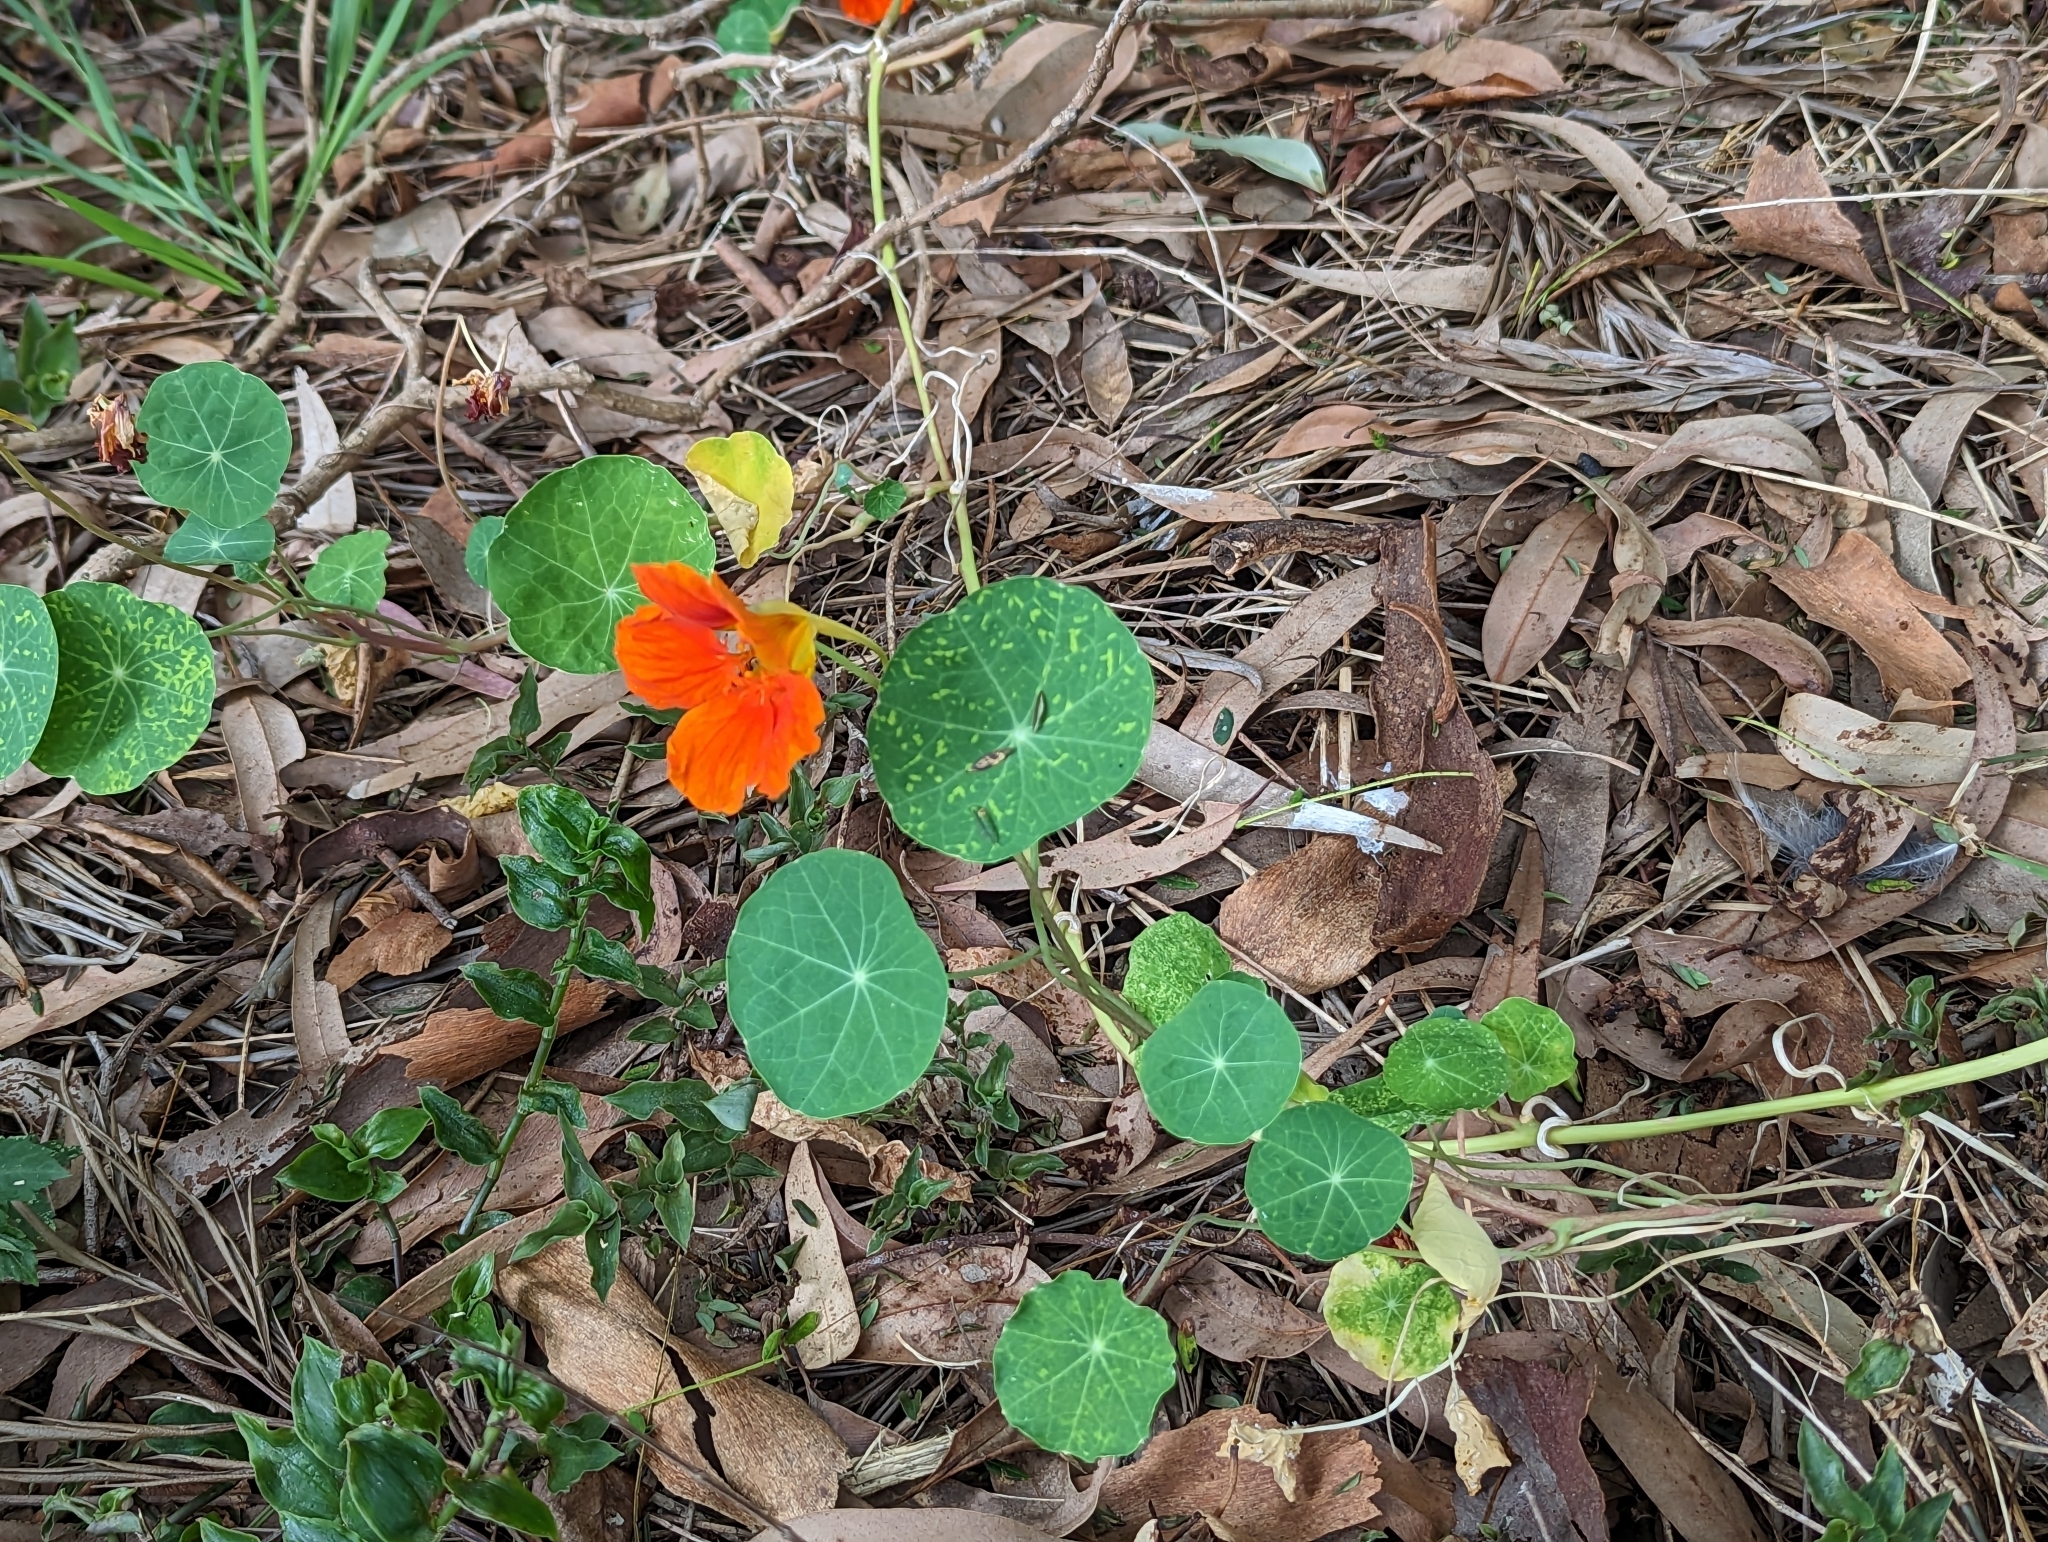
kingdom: Plantae
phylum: Tracheophyta
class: Magnoliopsida
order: Brassicales
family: Tropaeolaceae
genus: Tropaeolum
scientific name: Tropaeolum majus
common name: Nasturtium
